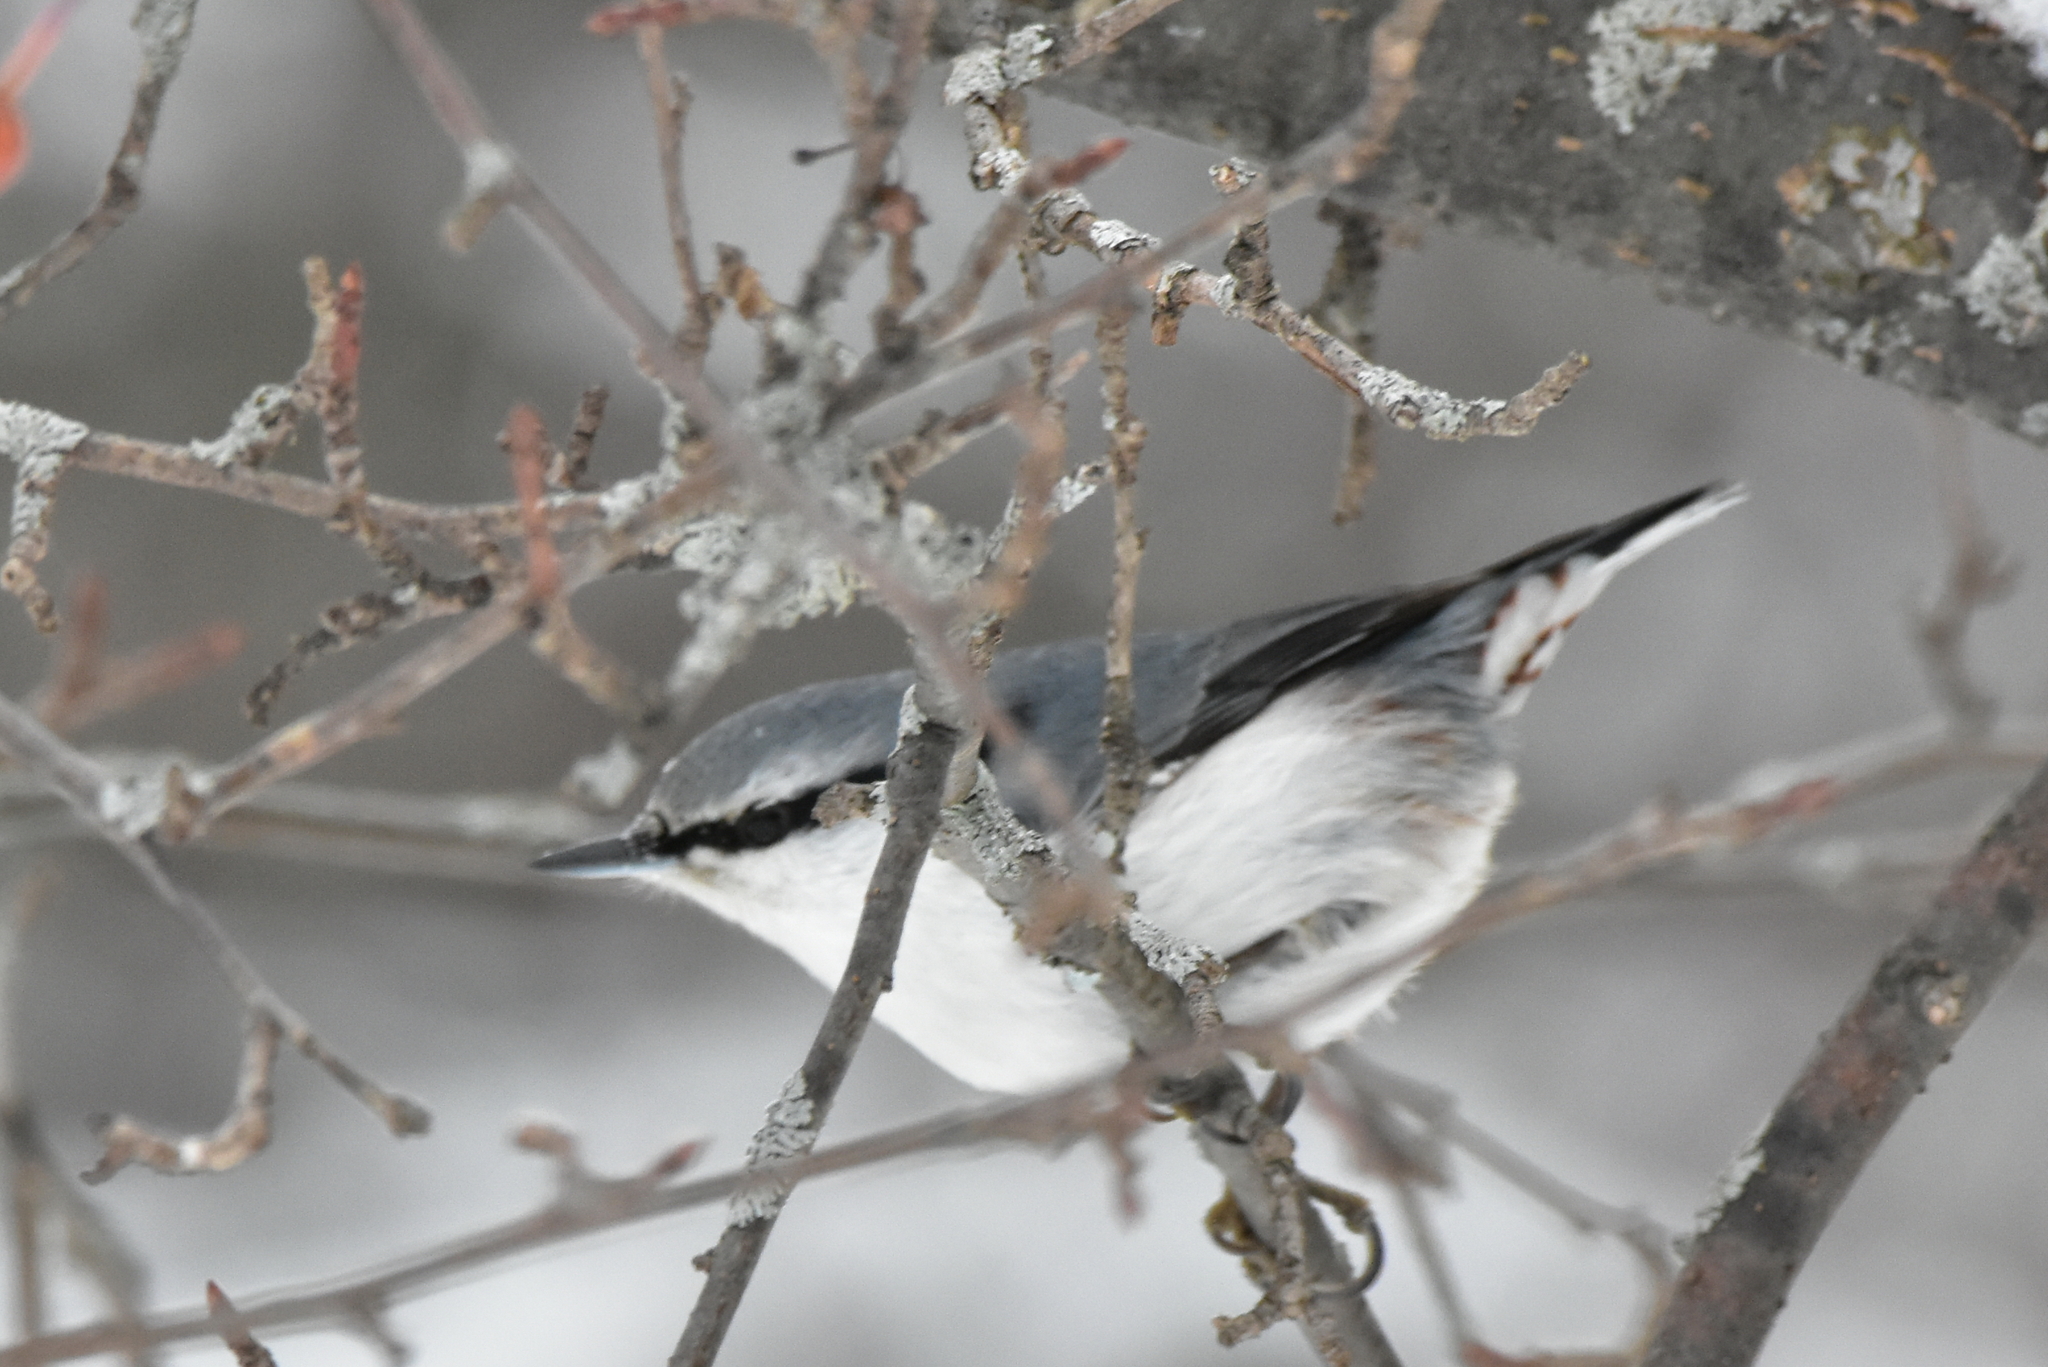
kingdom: Animalia
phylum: Chordata
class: Aves
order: Passeriformes
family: Sittidae
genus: Sitta
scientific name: Sitta europaea
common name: Eurasian nuthatch
